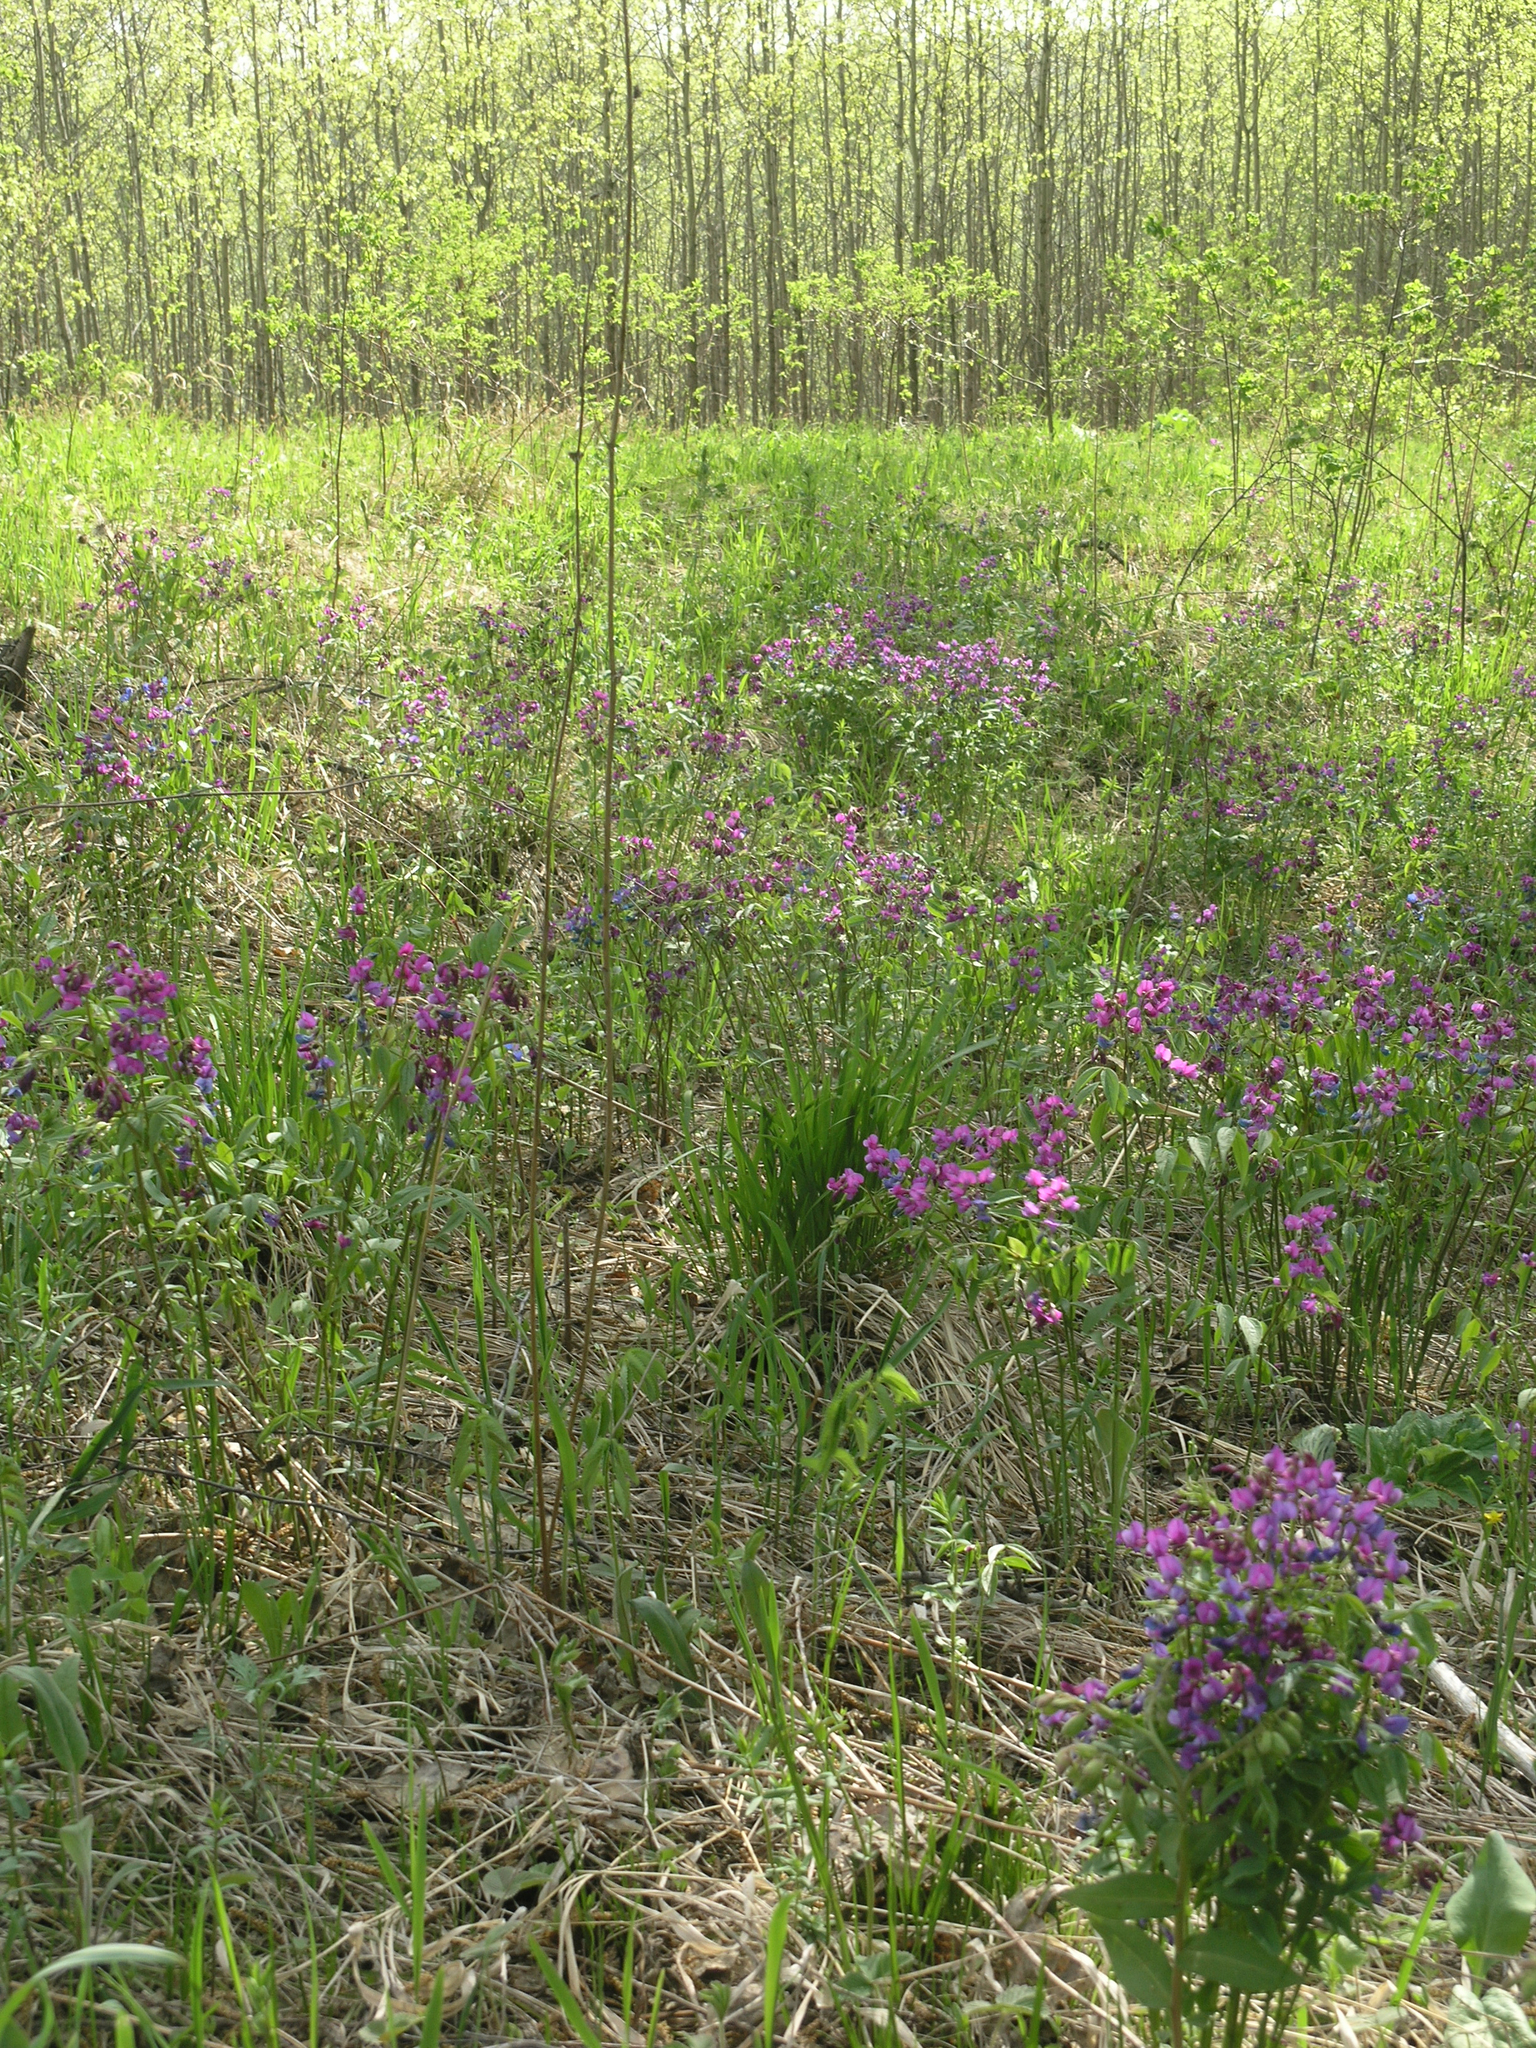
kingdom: Plantae
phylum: Tracheophyta
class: Magnoliopsida
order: Fabales
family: Fabaceae
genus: Lathyrus
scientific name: Lathyrus vernus
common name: Spring pea
